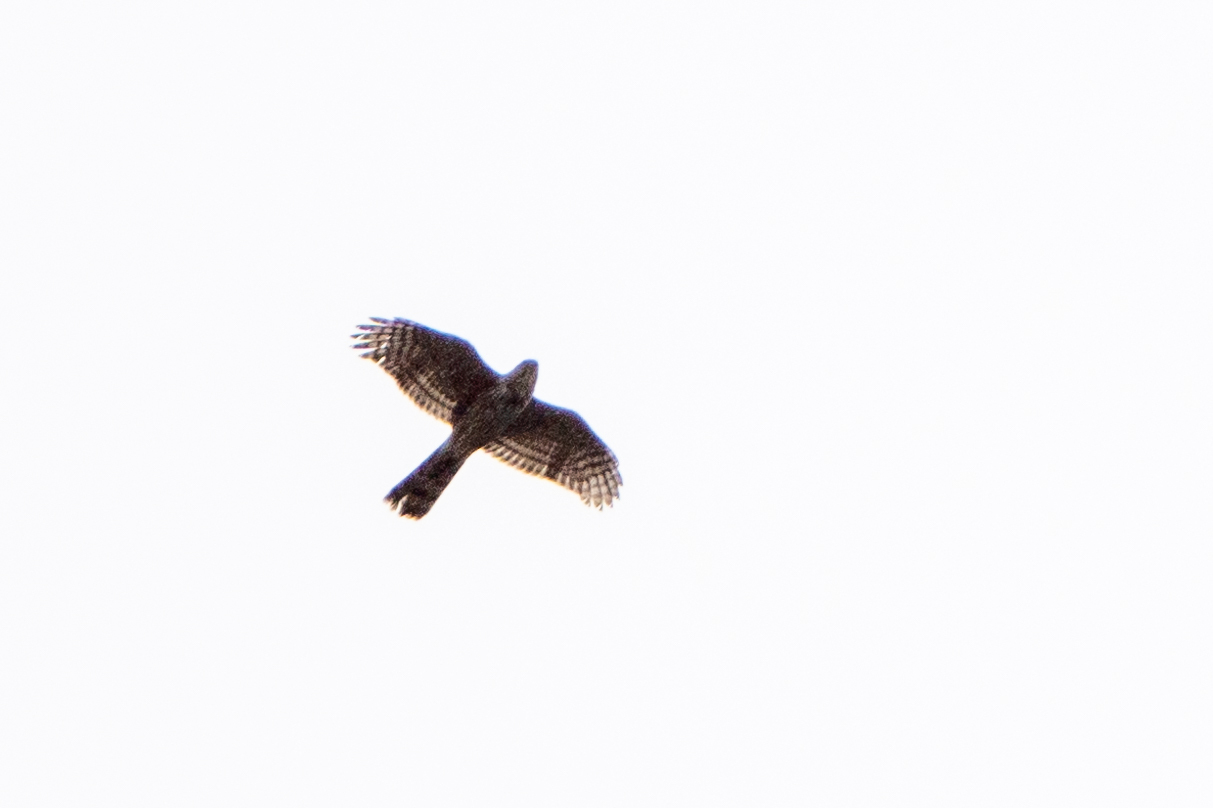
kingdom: Animalia
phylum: Chordata
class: Aves
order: Accipitriformes
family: Accipitridae
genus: Accipiter
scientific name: Accipiter striatus
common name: Sharp-shinned hawk
